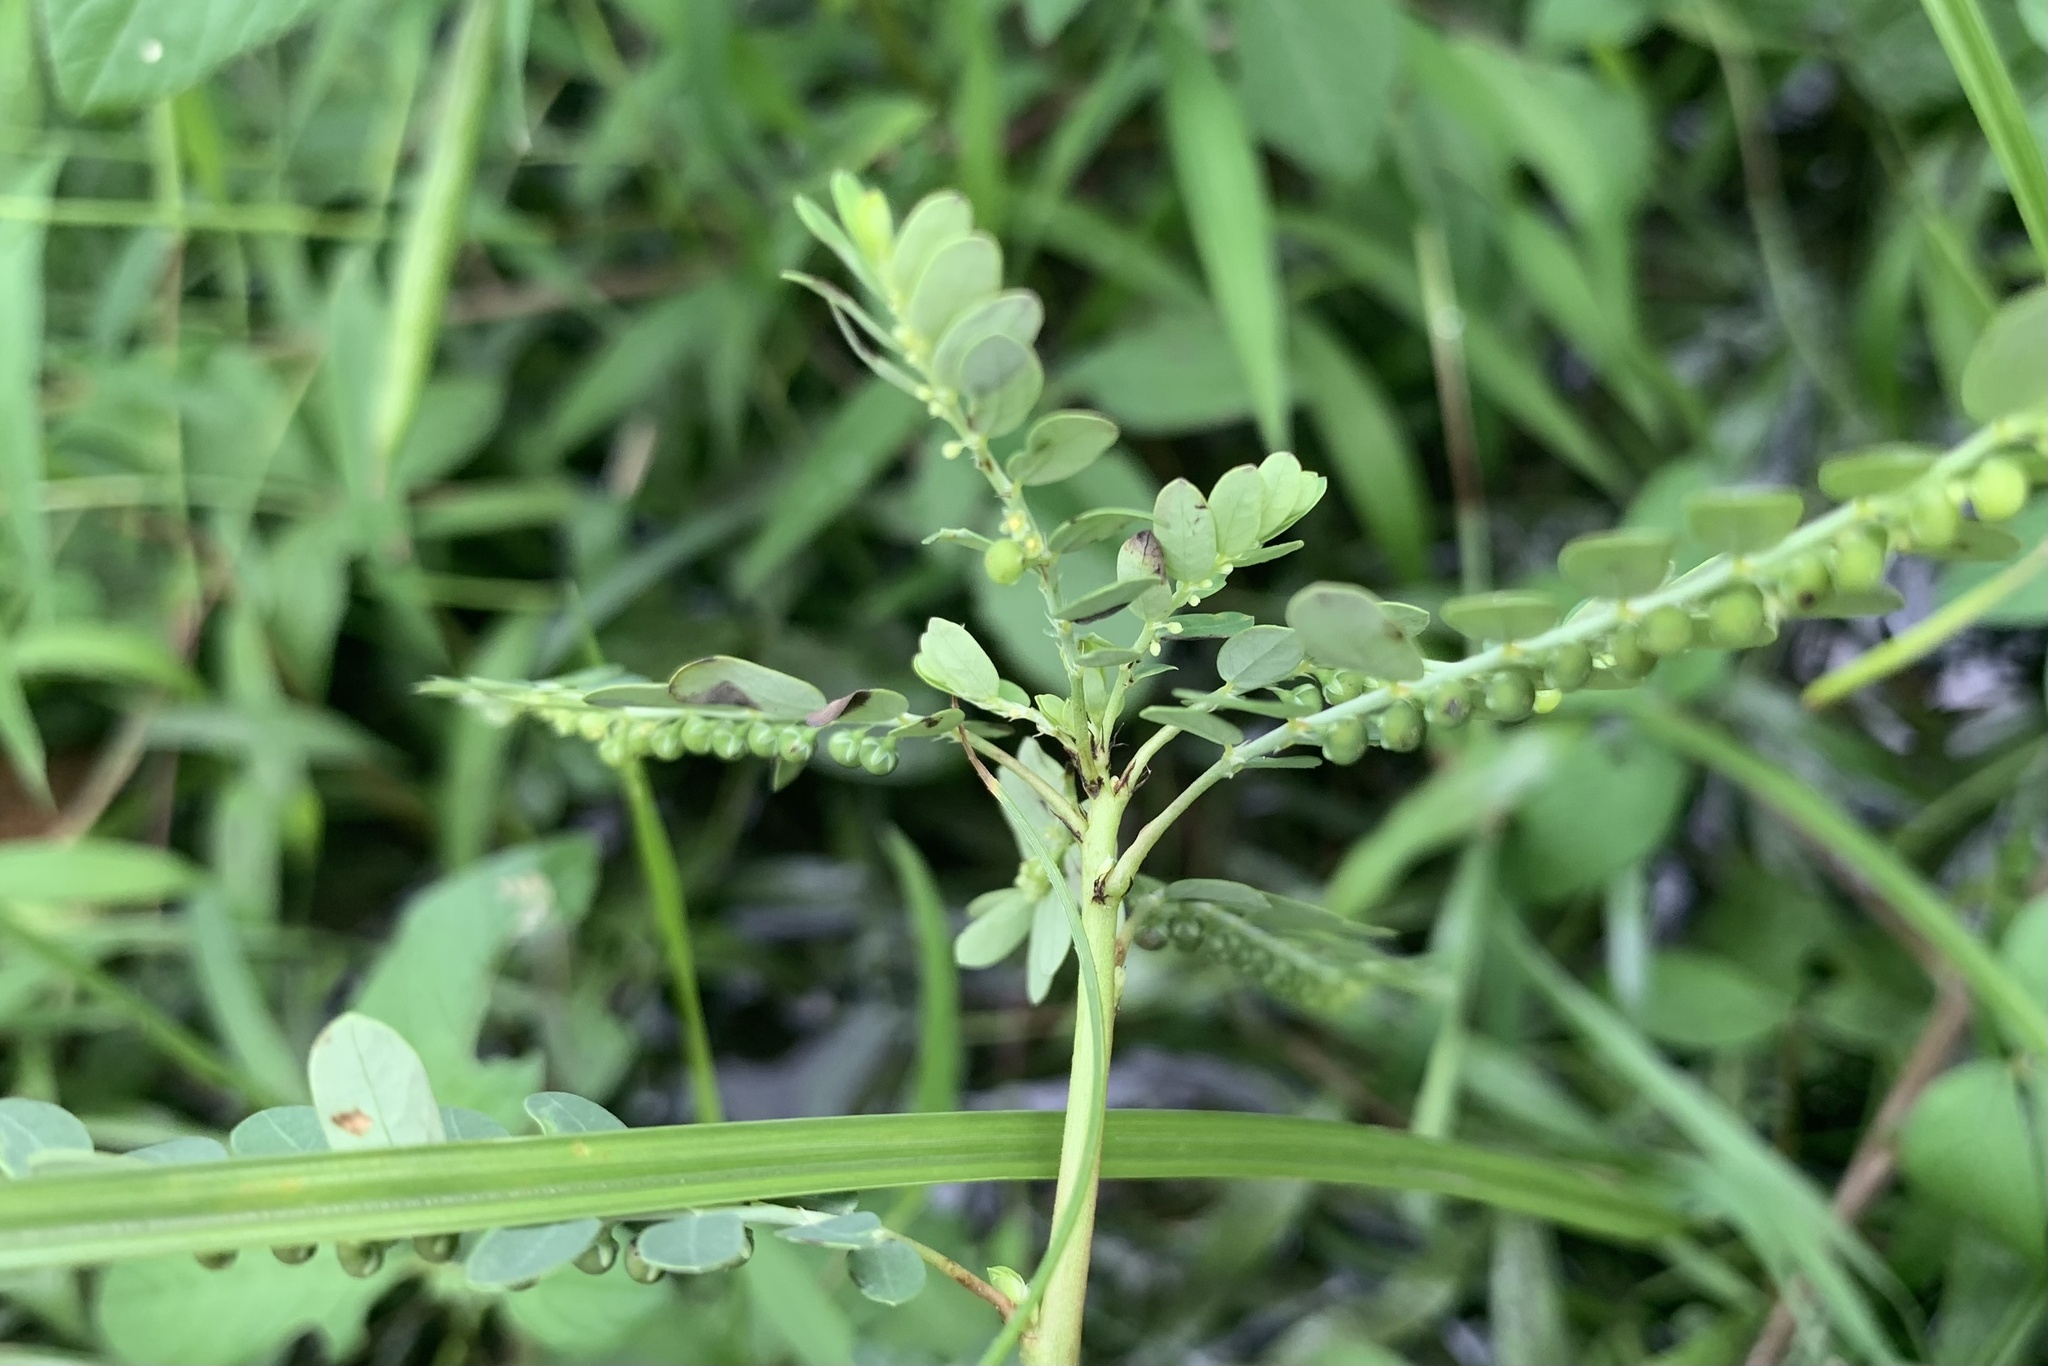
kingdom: Plantae
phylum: Tracheophyta
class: Magnoliopsida
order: Malpighiales
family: Phyllanthaceae
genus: Phyllanthus
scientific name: Phyllanthus amarus
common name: Carry me seed
